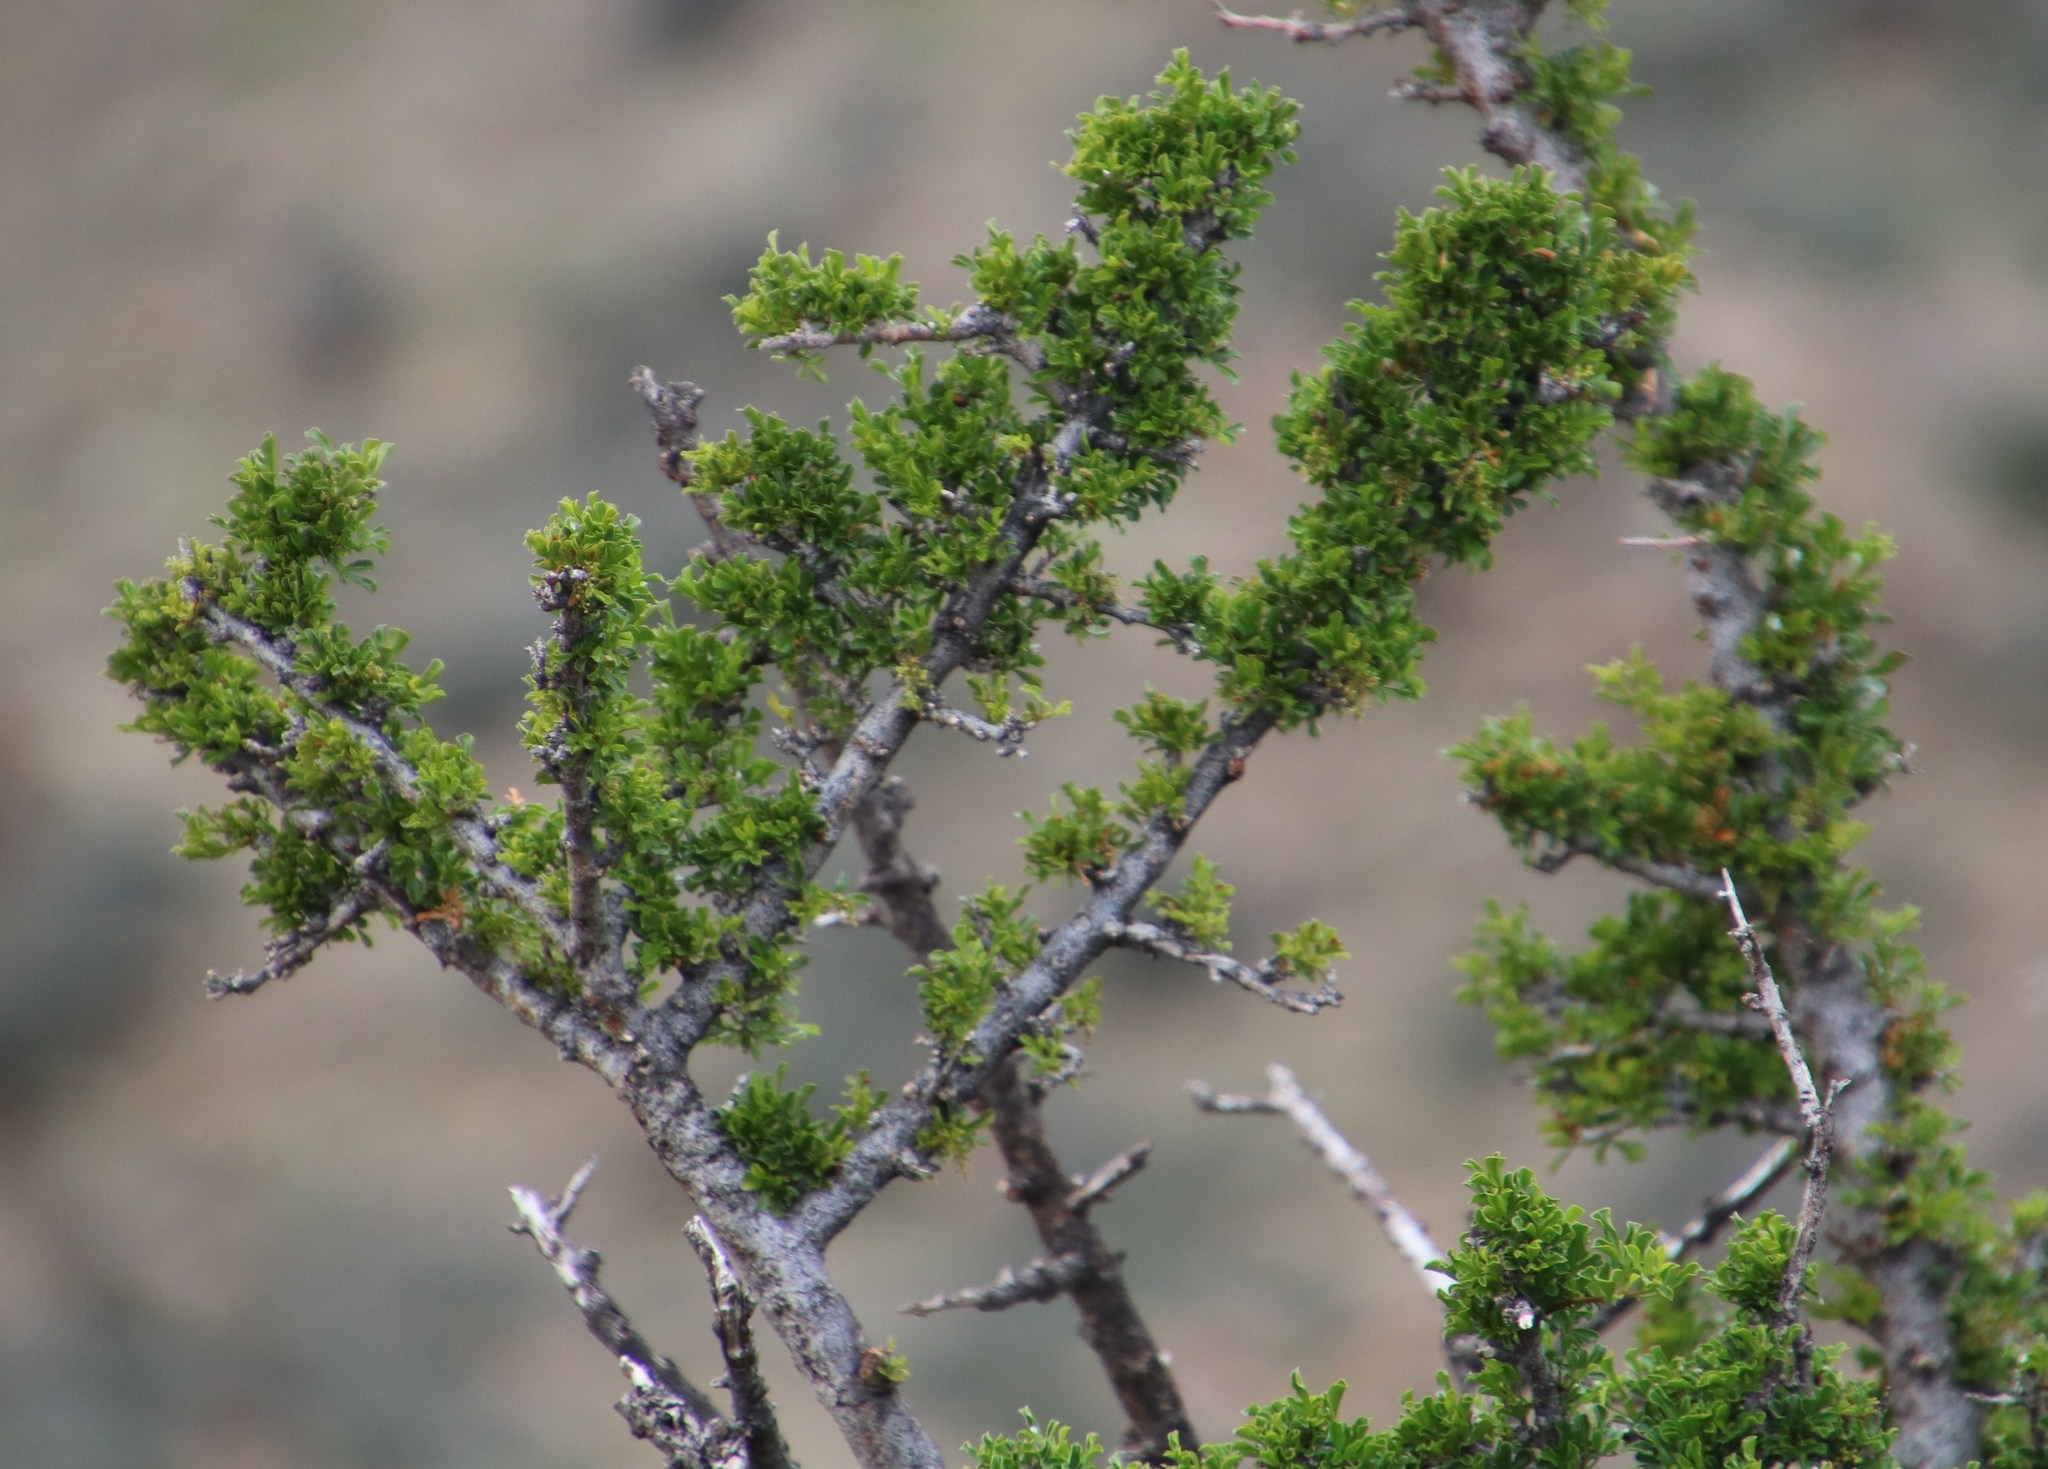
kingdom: Plantae
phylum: Tracheophyta
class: Magnoliopsida
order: Sapindales
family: Anacardiaceae
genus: Searsia
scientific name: Searsia burchellii
